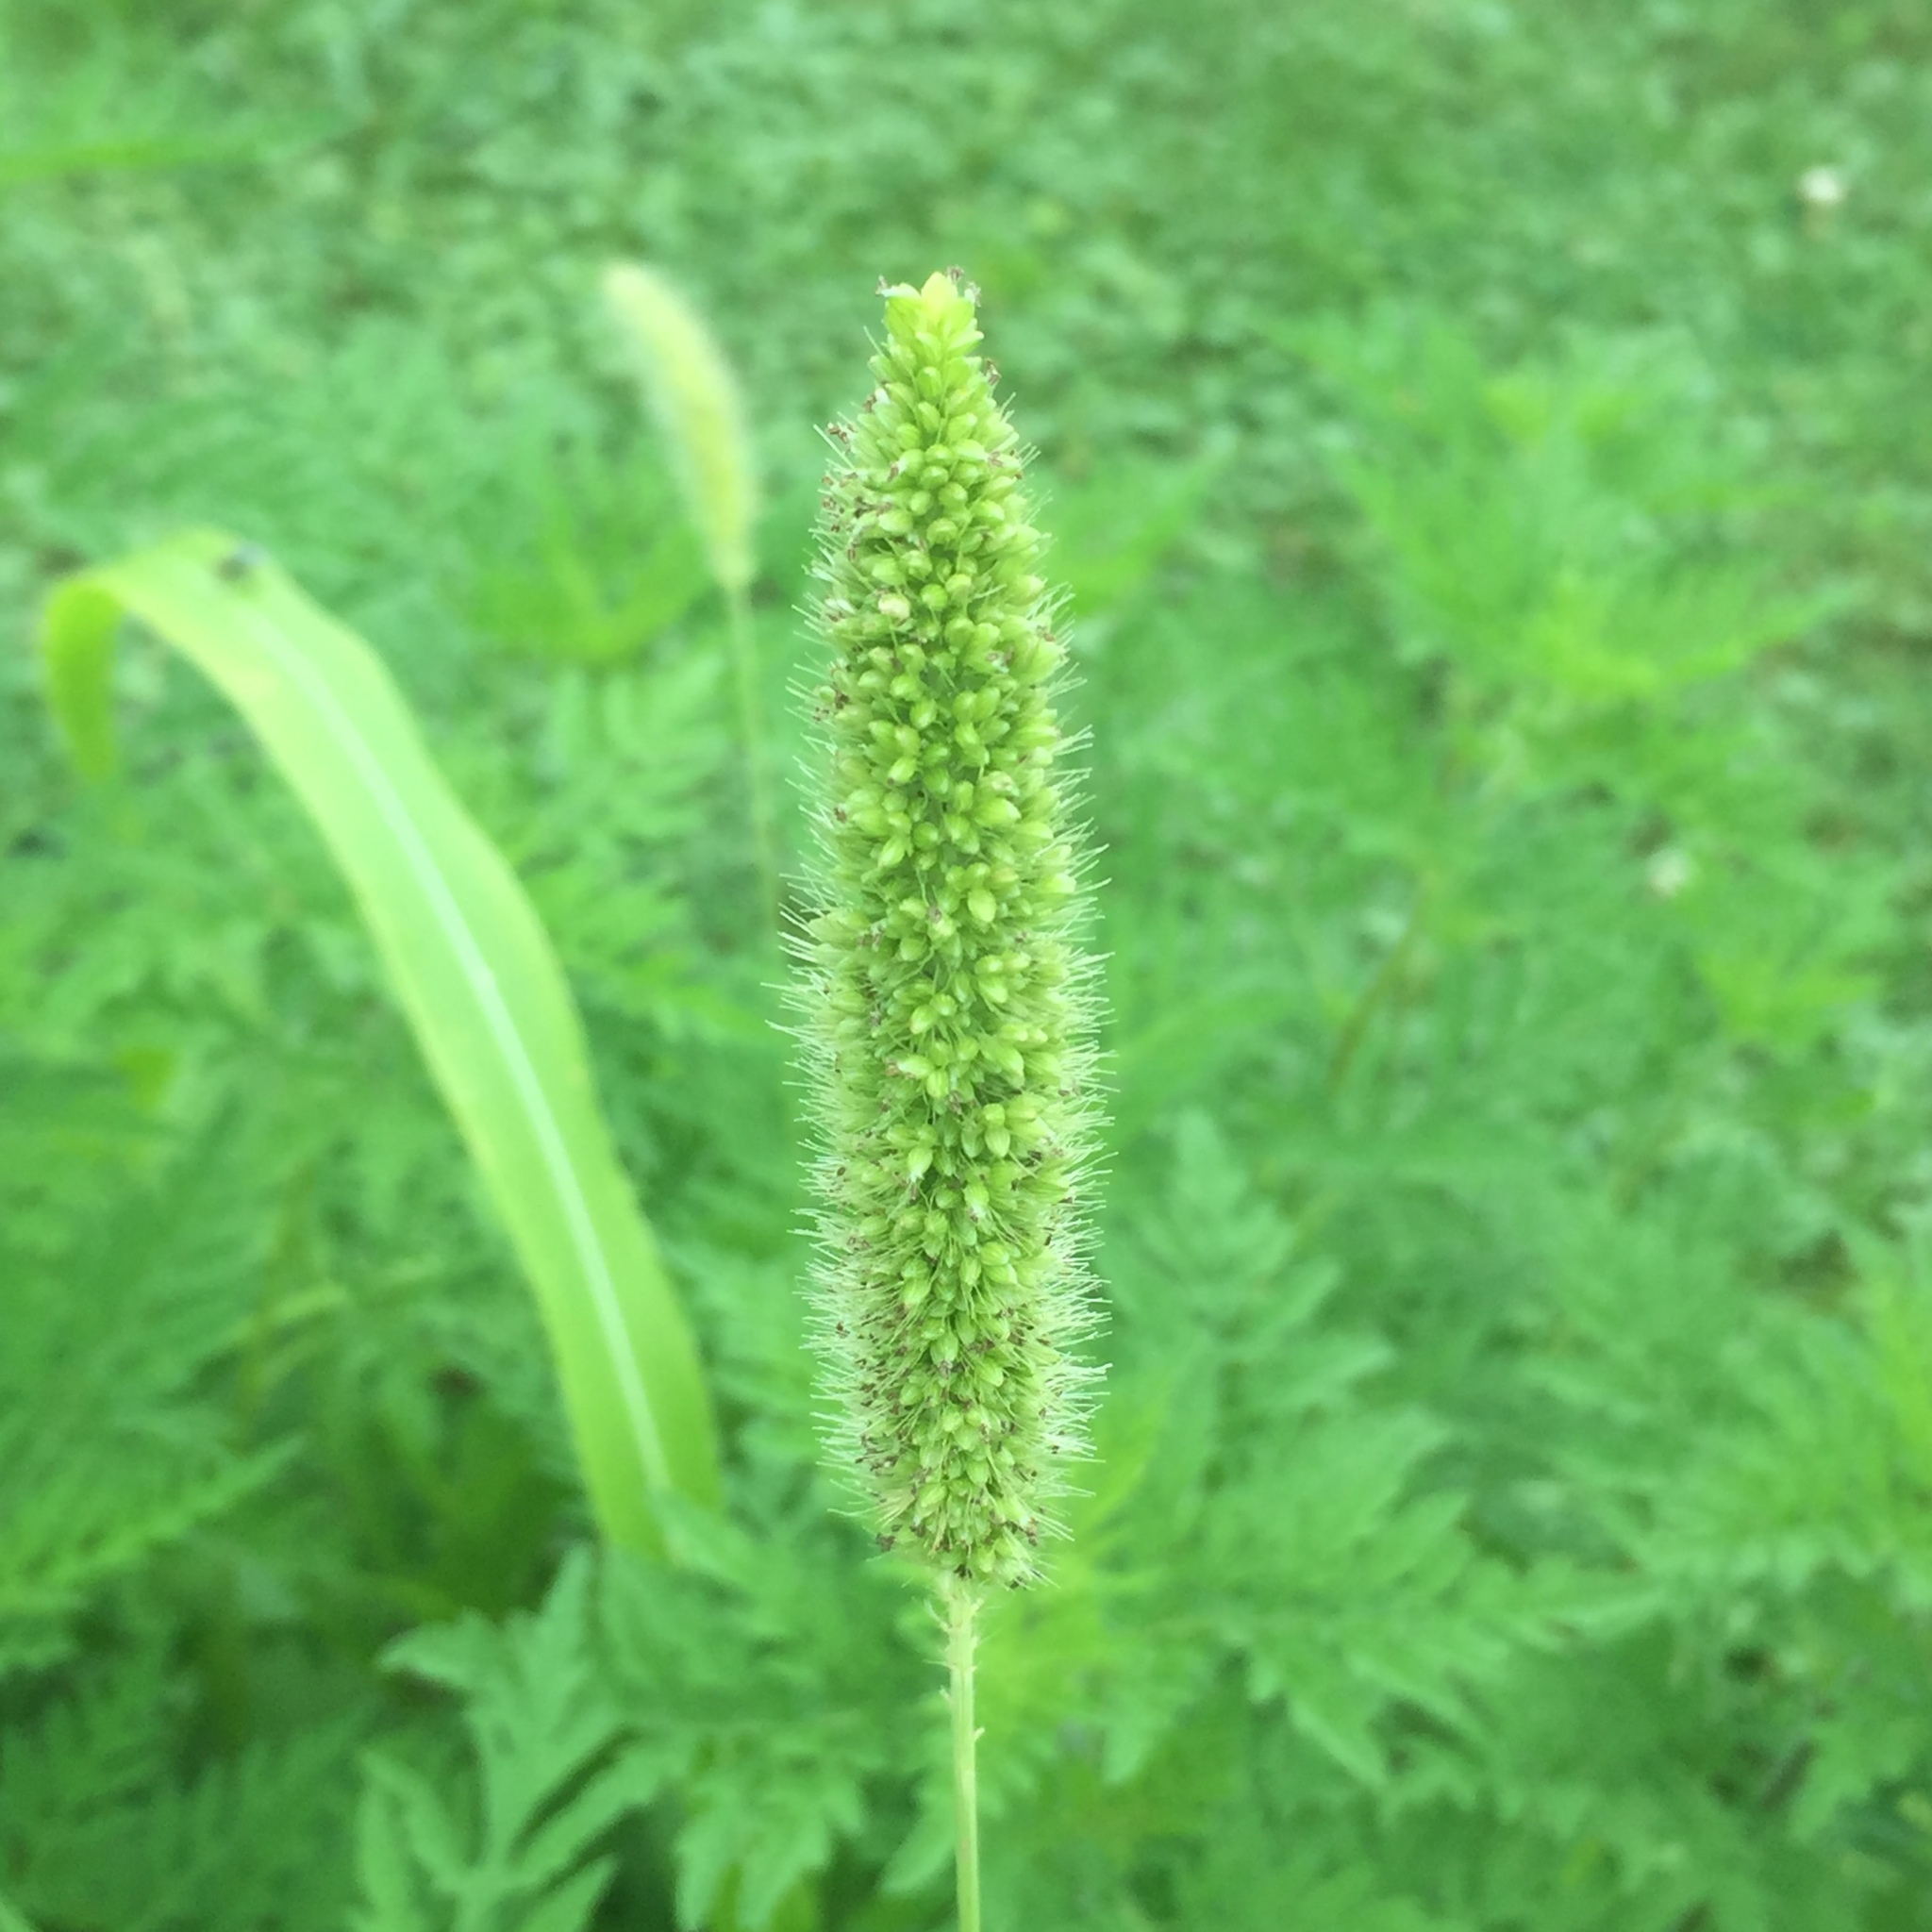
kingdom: Plantae
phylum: Tracheophyta
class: Liliopsida
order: Poales
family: Poaceae
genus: Setaria
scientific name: Setaria italica
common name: Foxtail bristle-grass
